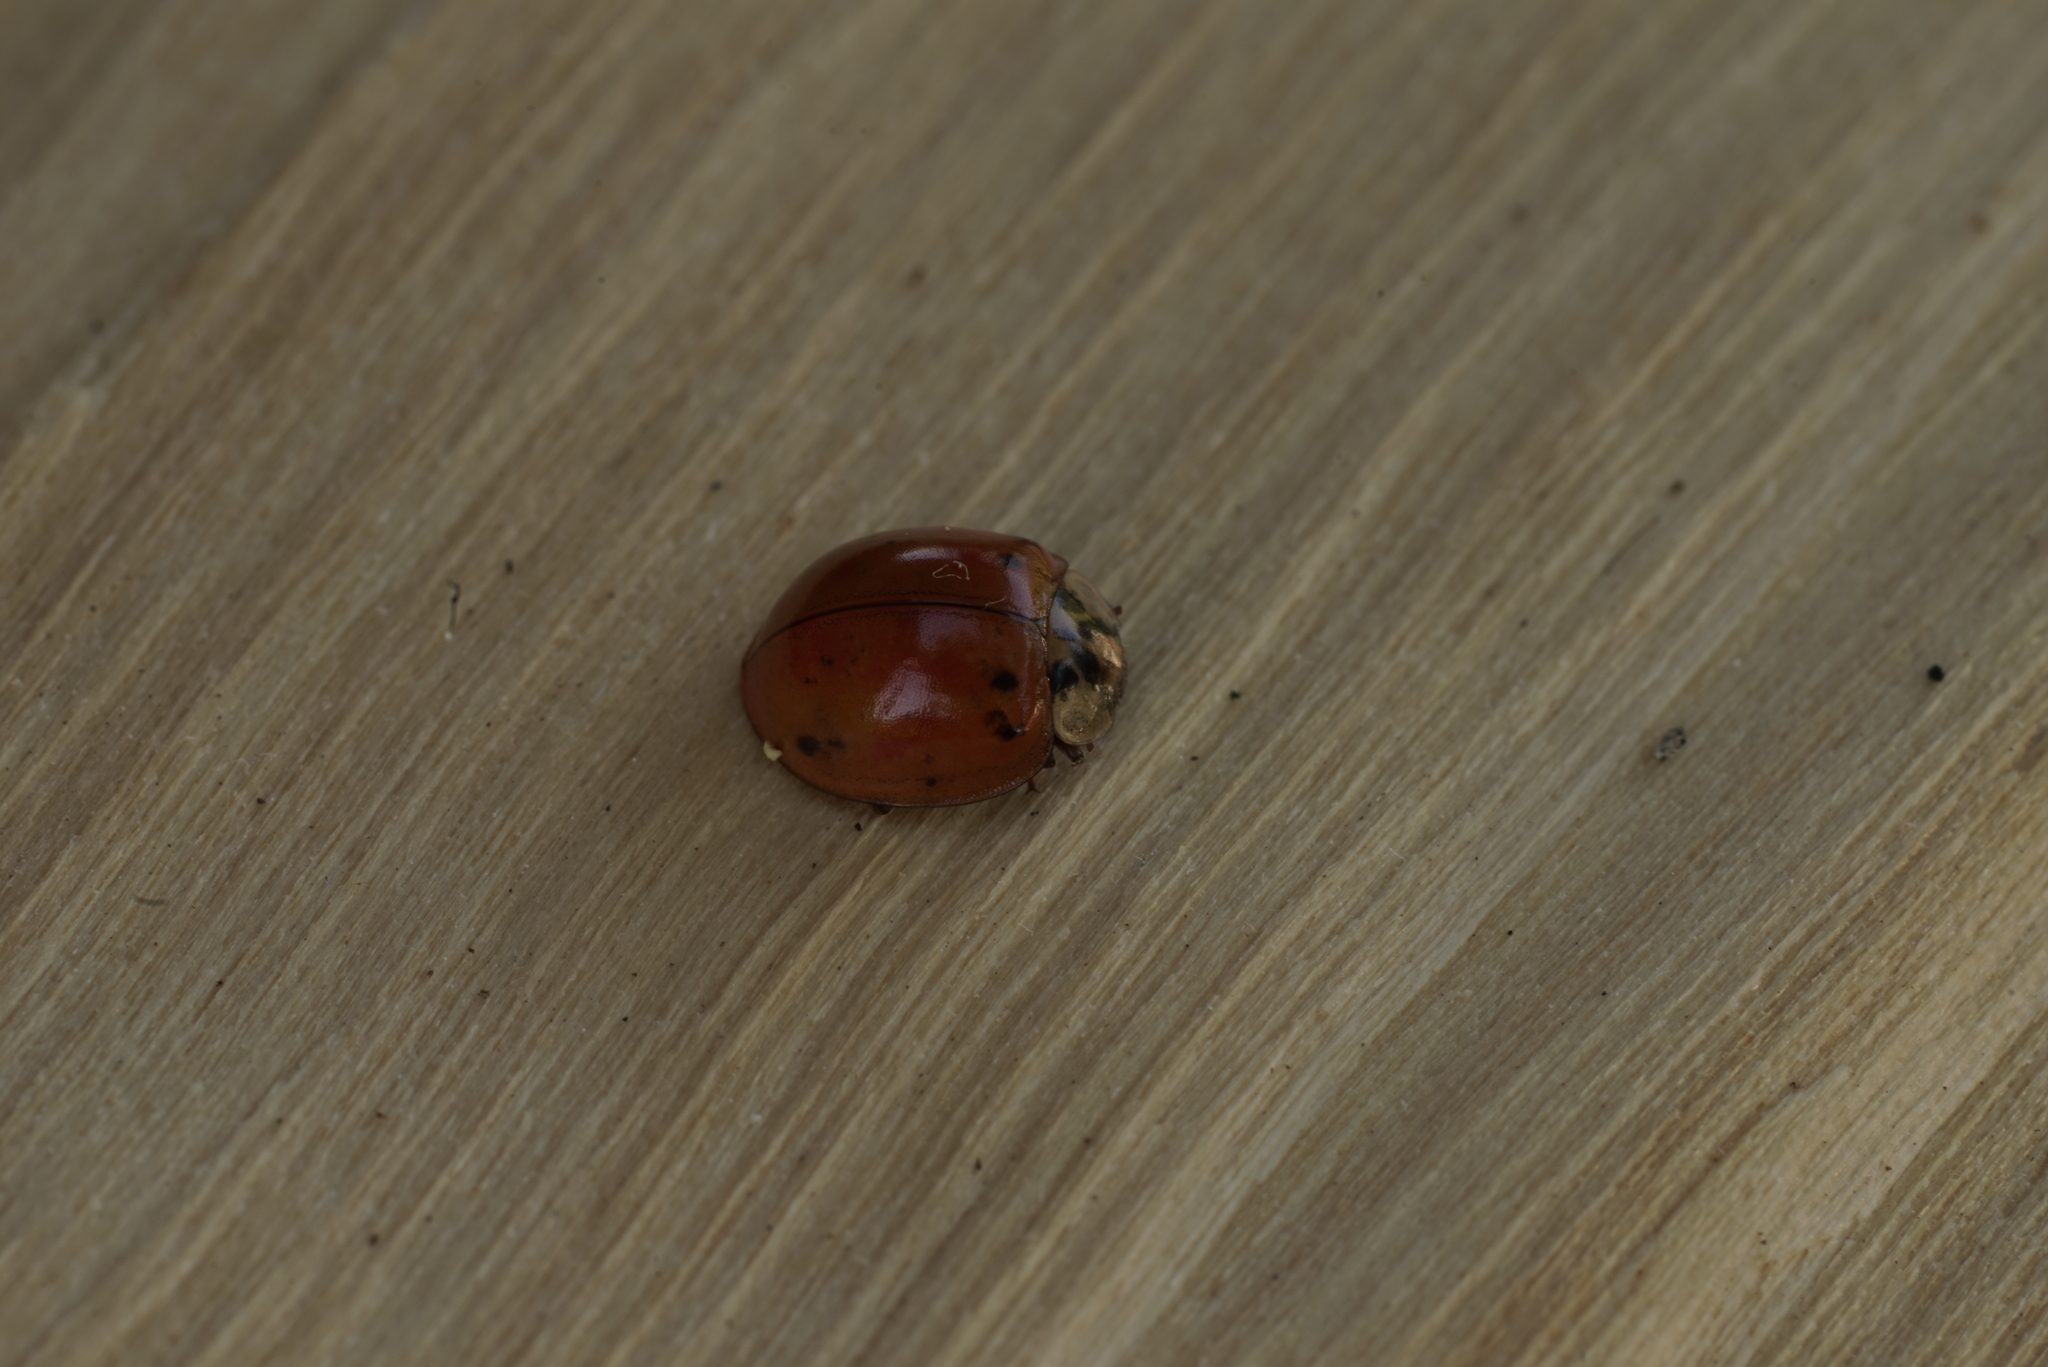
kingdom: Animalia
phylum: Arthropoda
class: Insecta
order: Coleoptera
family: Coccinellidae
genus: Harmonia
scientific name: Harmonia axyridis
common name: Harlequin ladybird
